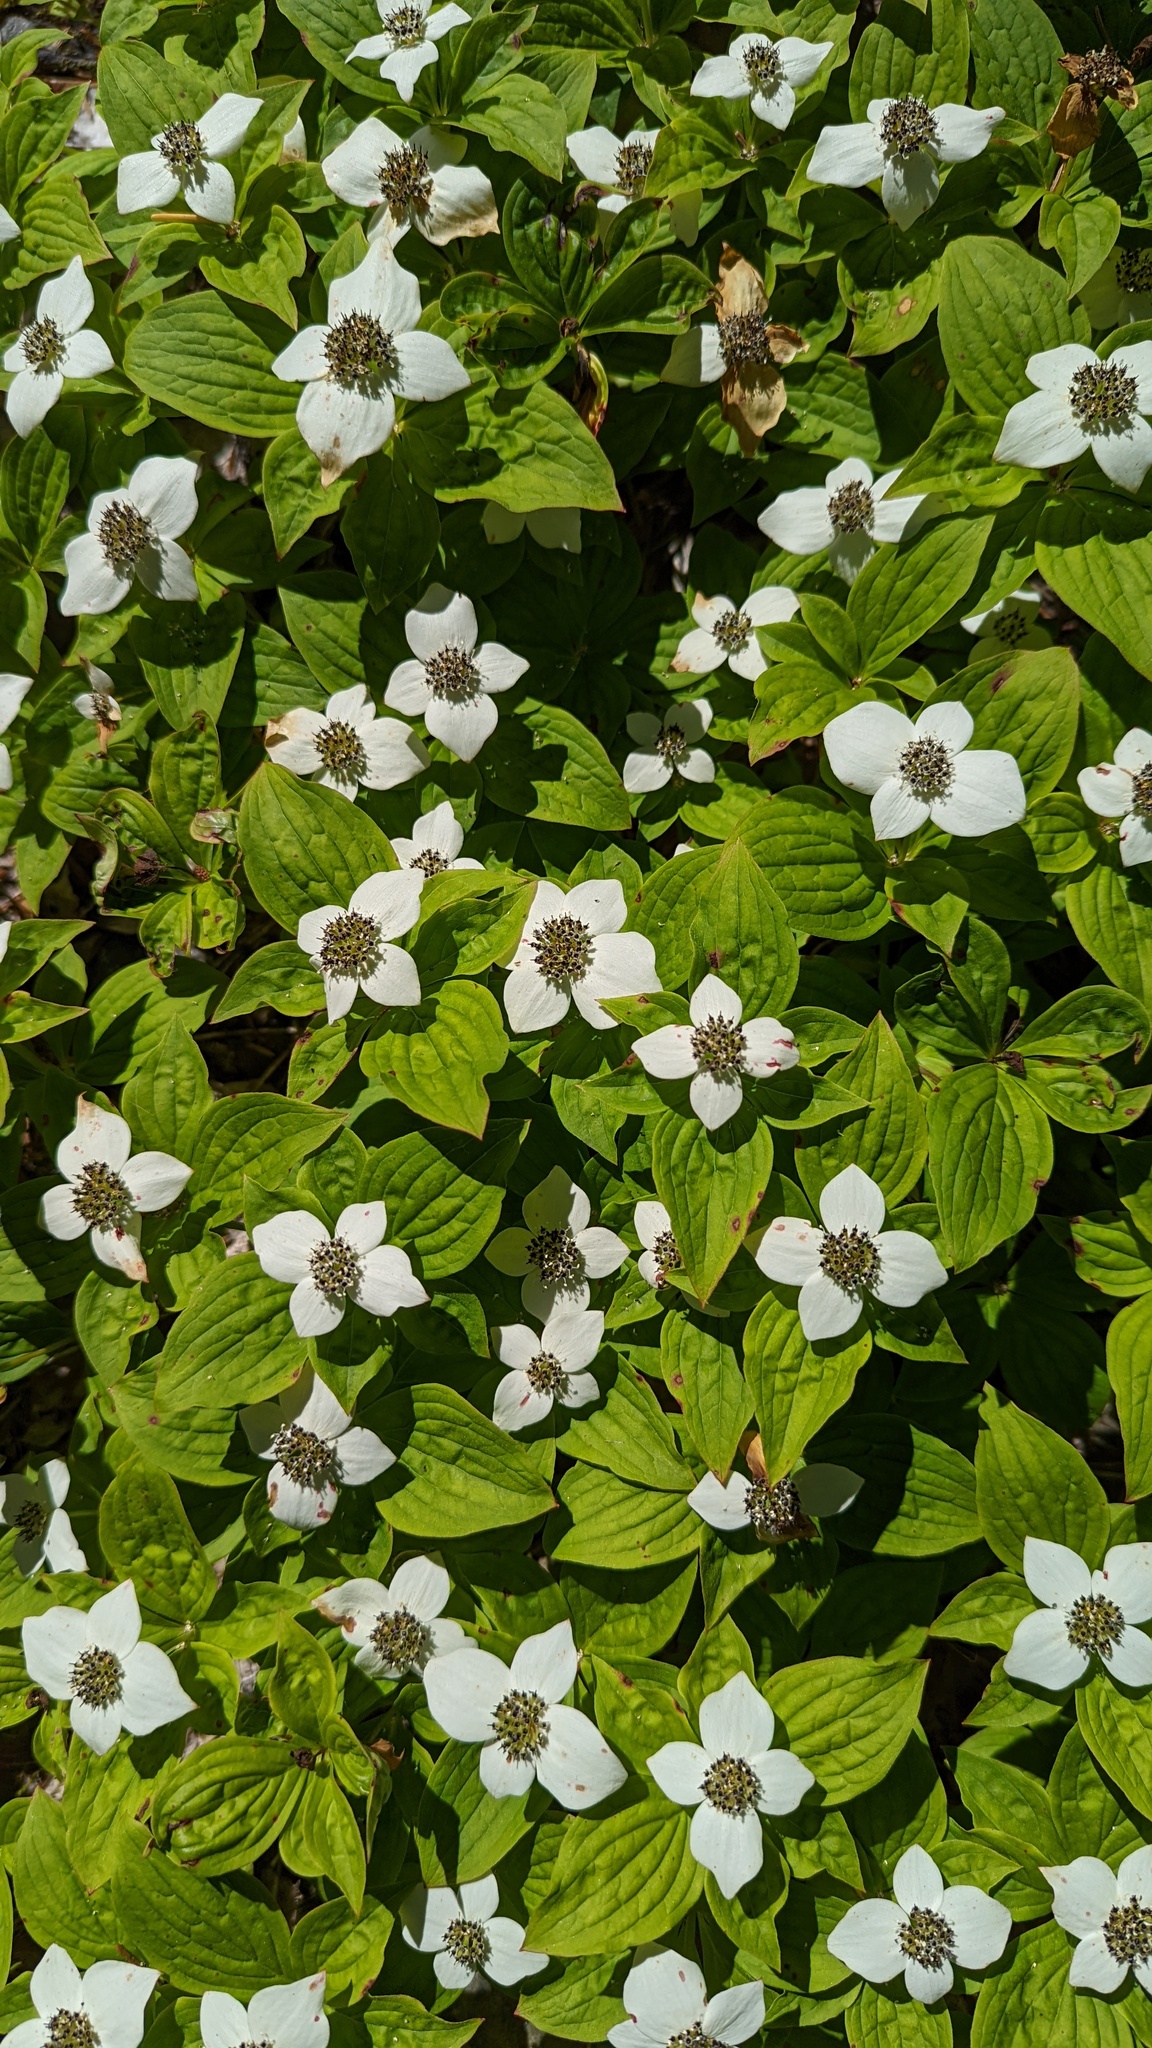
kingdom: Plantae
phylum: Tracheophyta
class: Magnoliopsida
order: Cornales
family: Cornaceae
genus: Cornus
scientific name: Cornus unalaschkensis
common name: Alaska bunchberry
